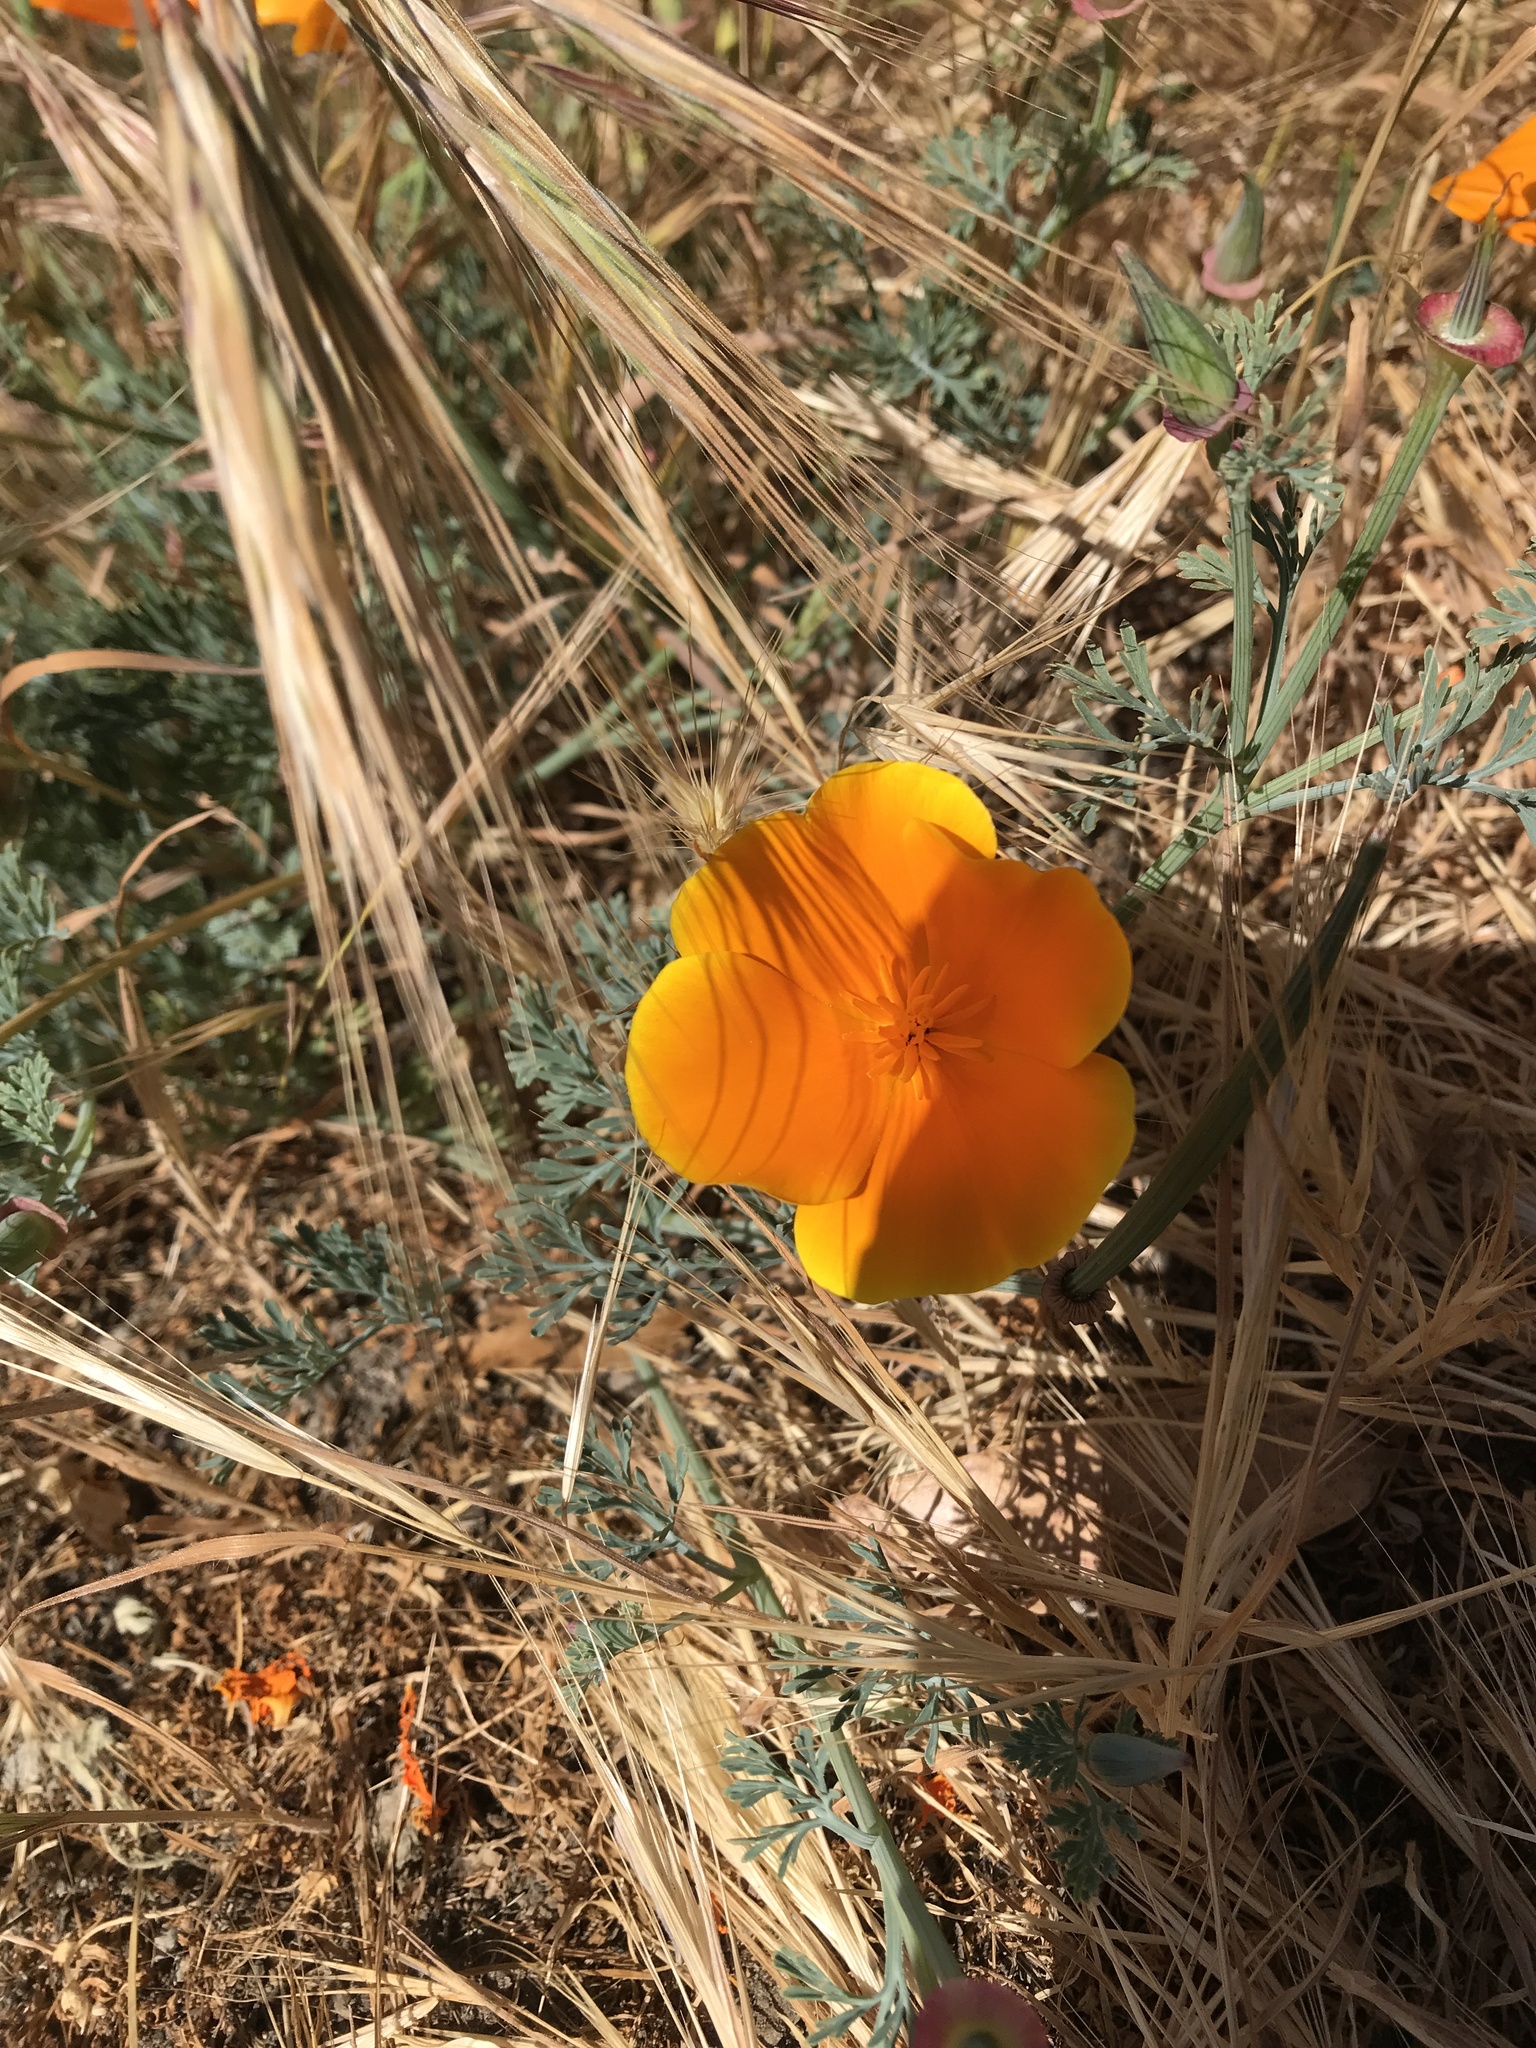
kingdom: Plantae
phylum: Tracheophyta
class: Magnoliopsida
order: Ranunculales
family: Papaveraceae
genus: Eschscholzia
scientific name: Eschscholzia californica
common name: California poppy
